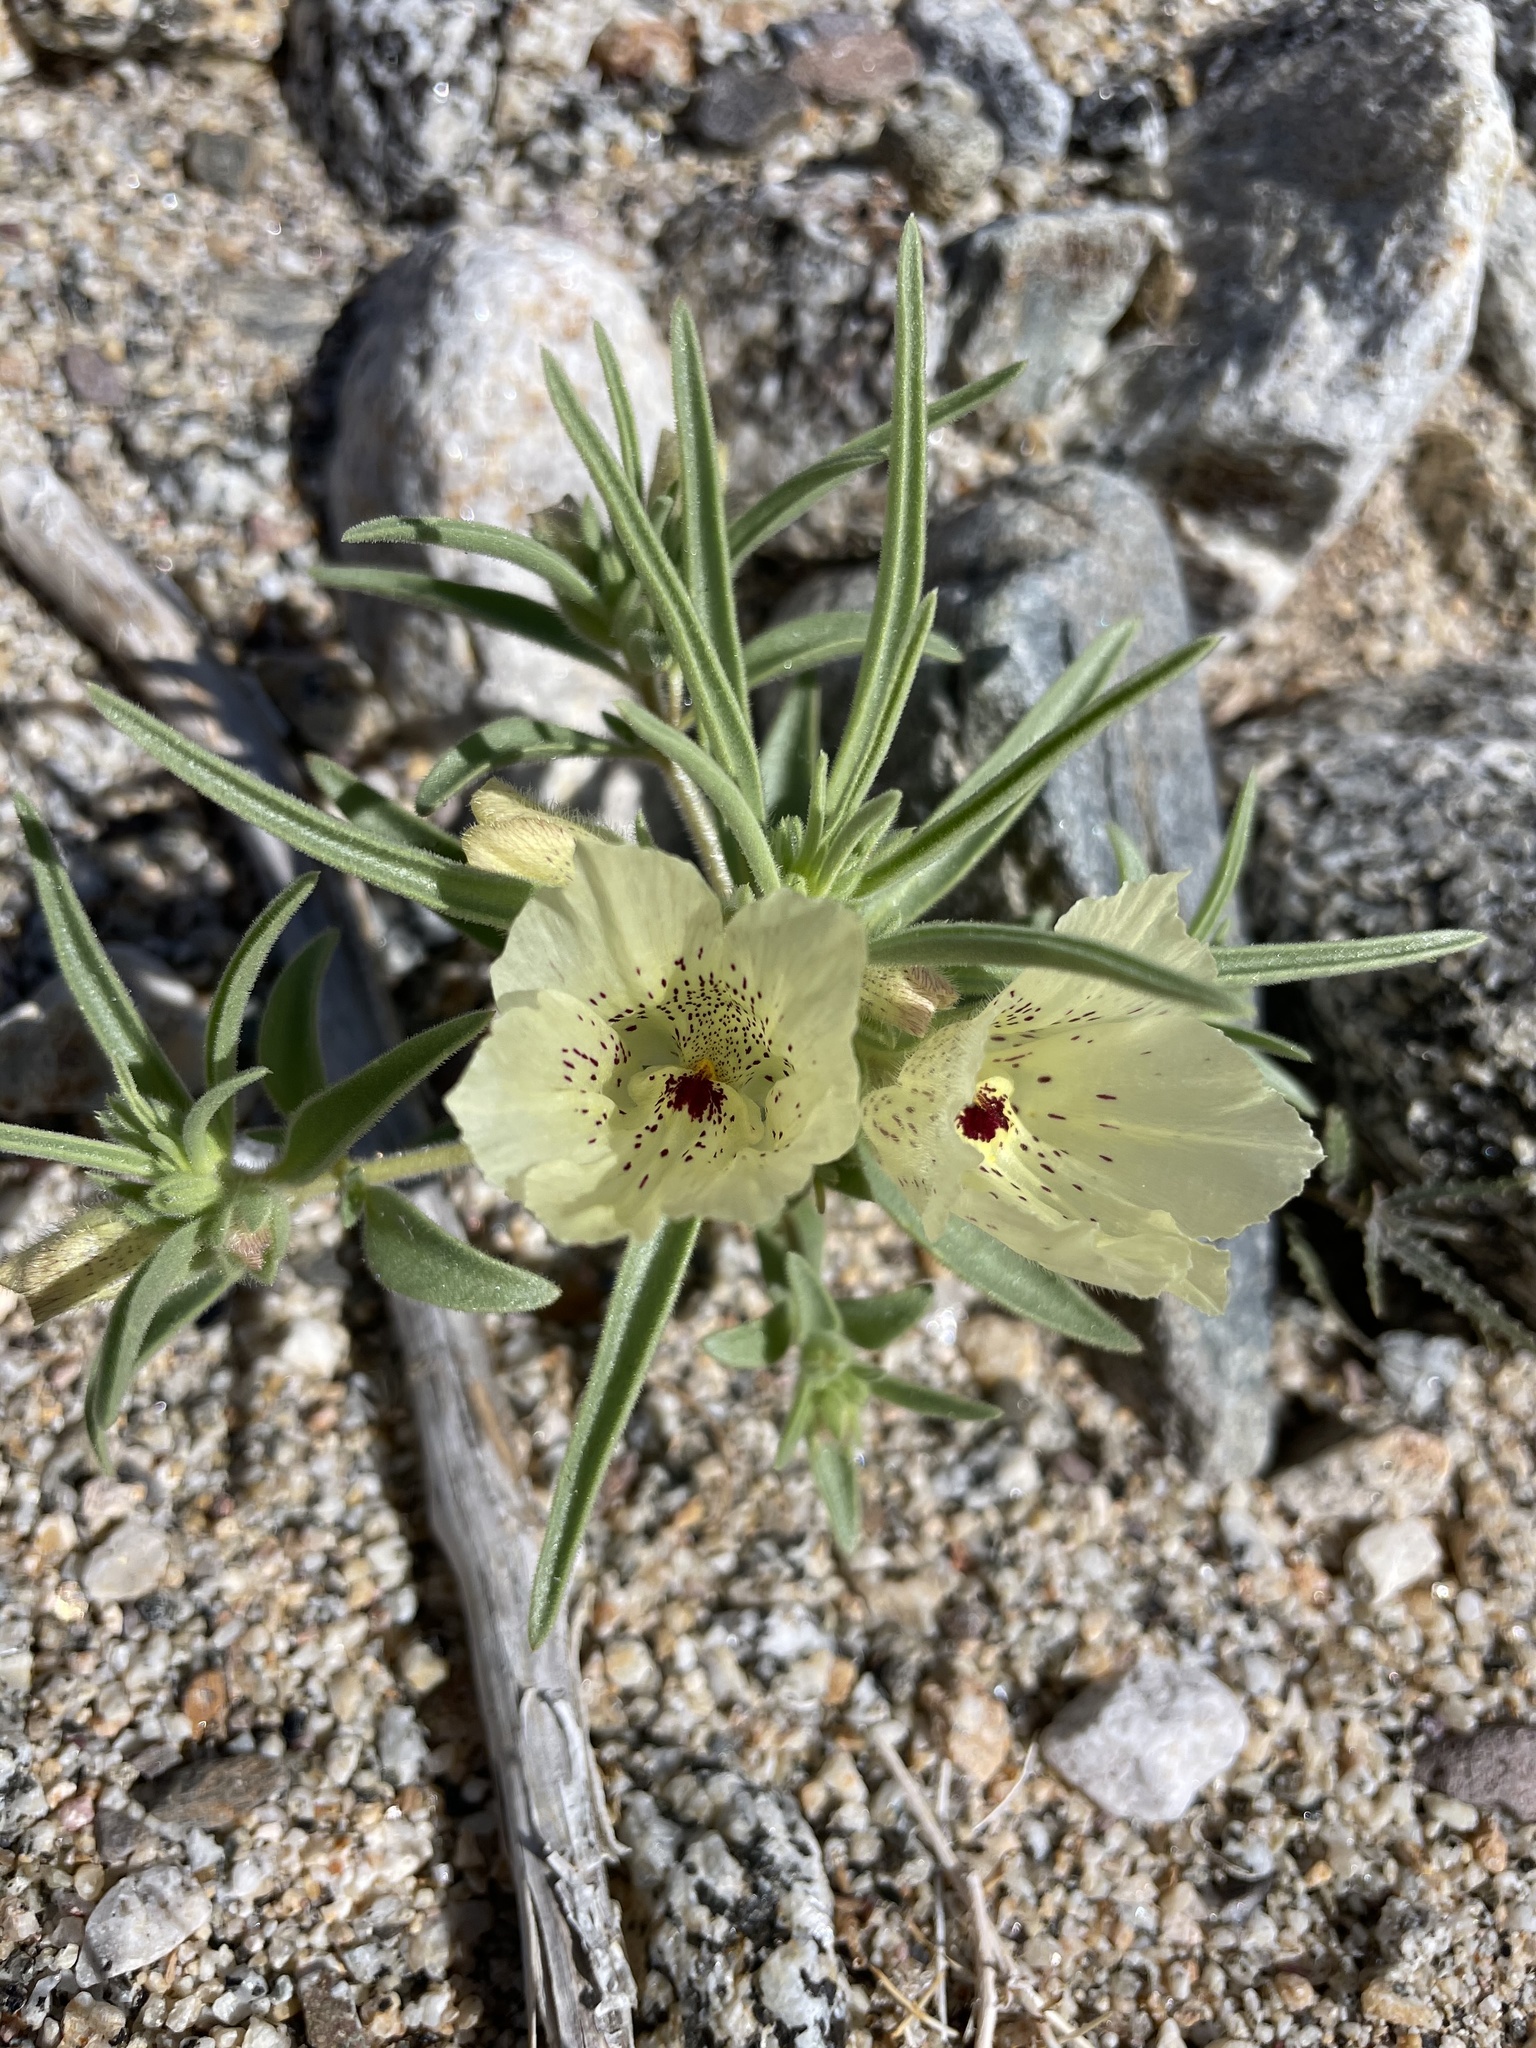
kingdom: Plantae
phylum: Tracheophyta
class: Magnoliopsida
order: Lamiales
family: Plantaginaceae
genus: Mohavea
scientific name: Mohavea confertiflora
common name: Ghost flower
